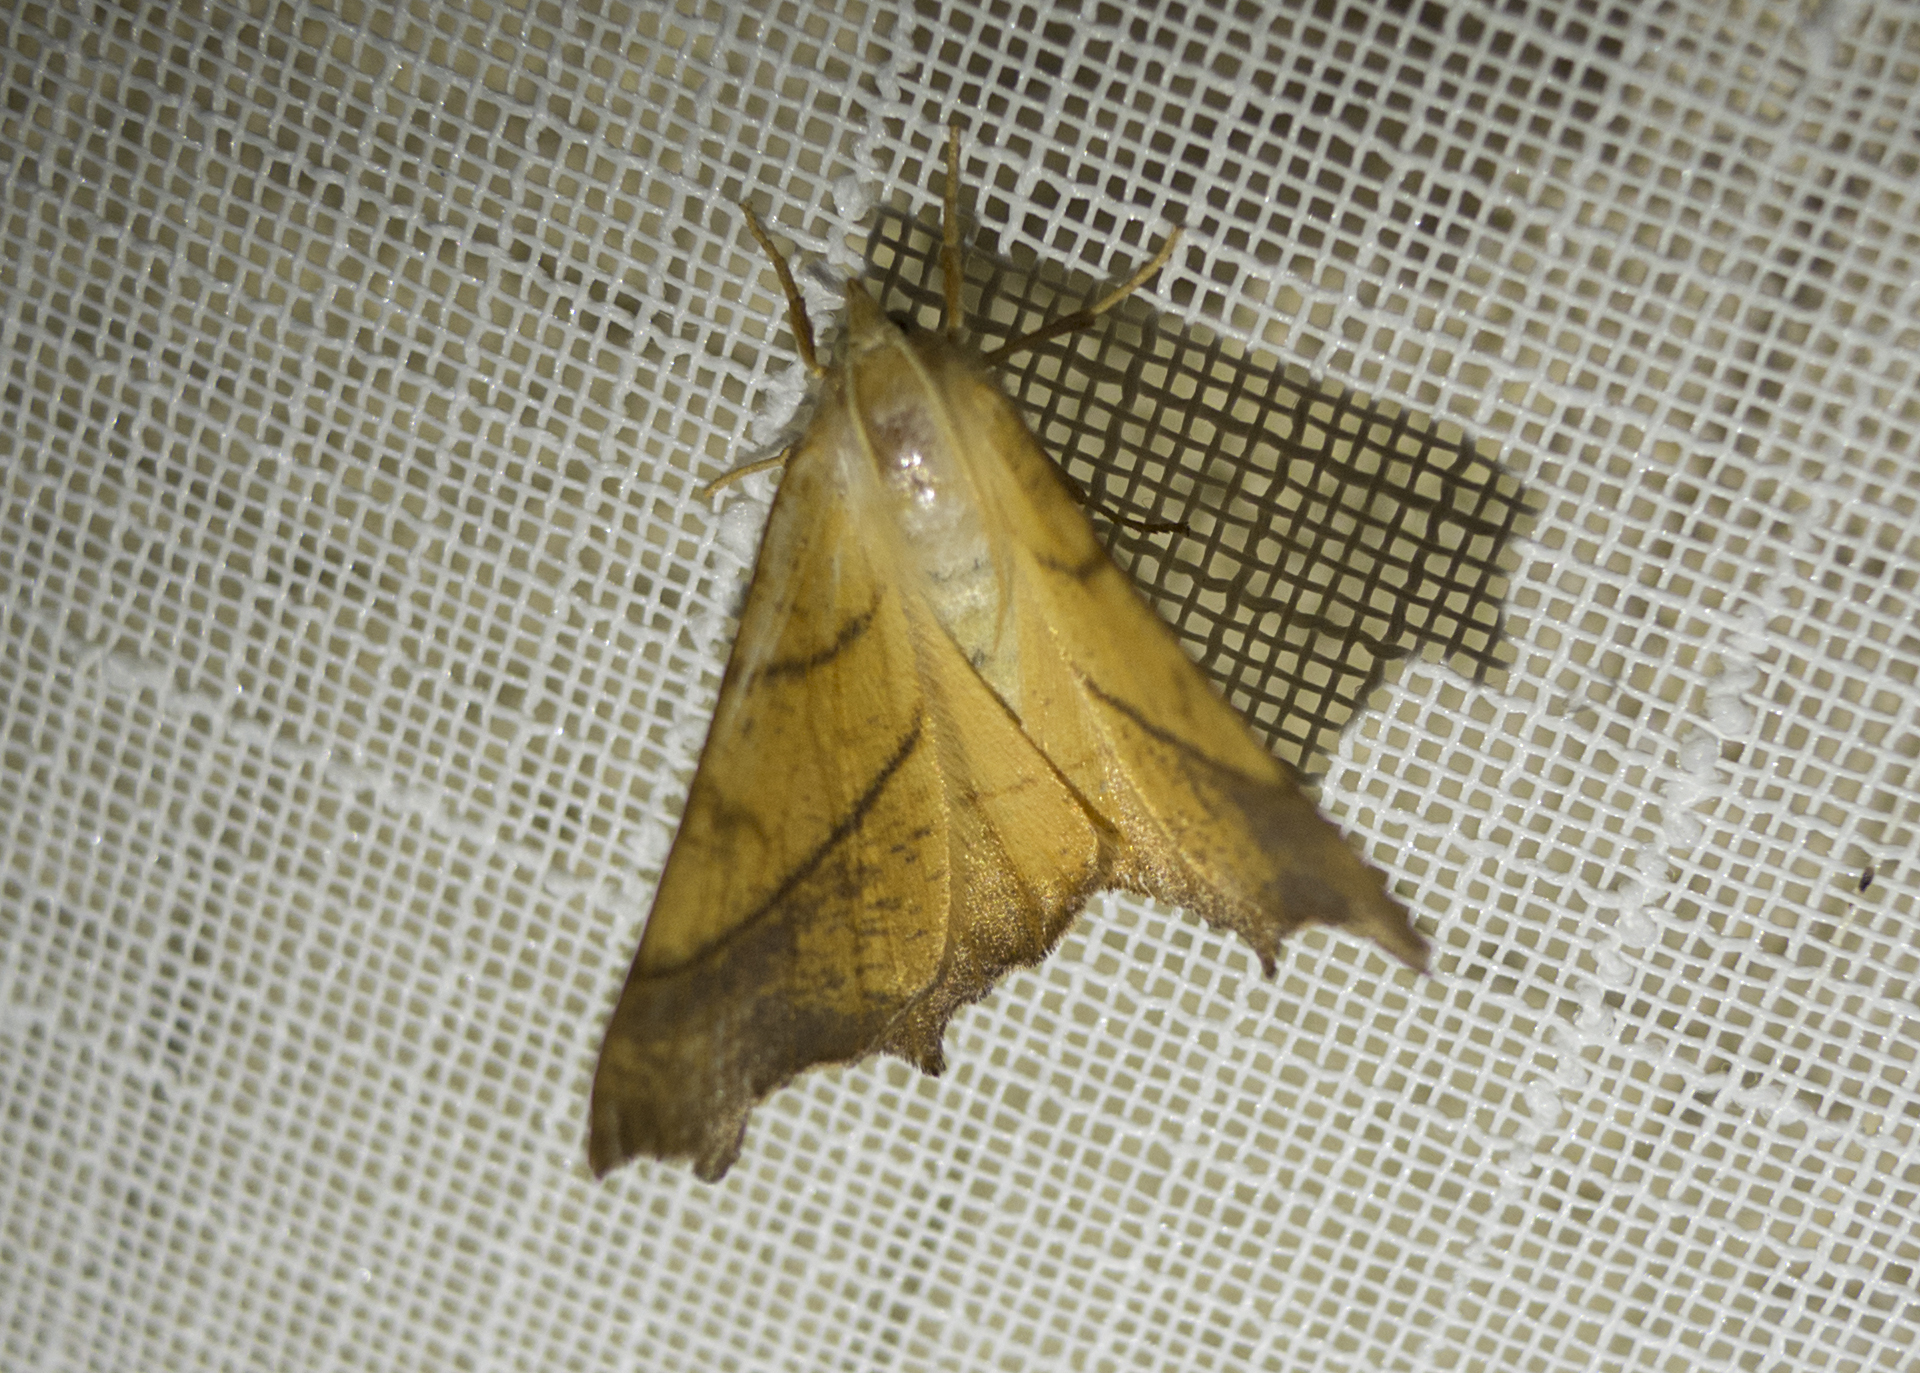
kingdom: Animalia
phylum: Arthropoda
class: Insecta
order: Lepidoptera
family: Geometridae
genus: Ennomos
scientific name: Ennomos fuscantaria
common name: Dusky thorn
